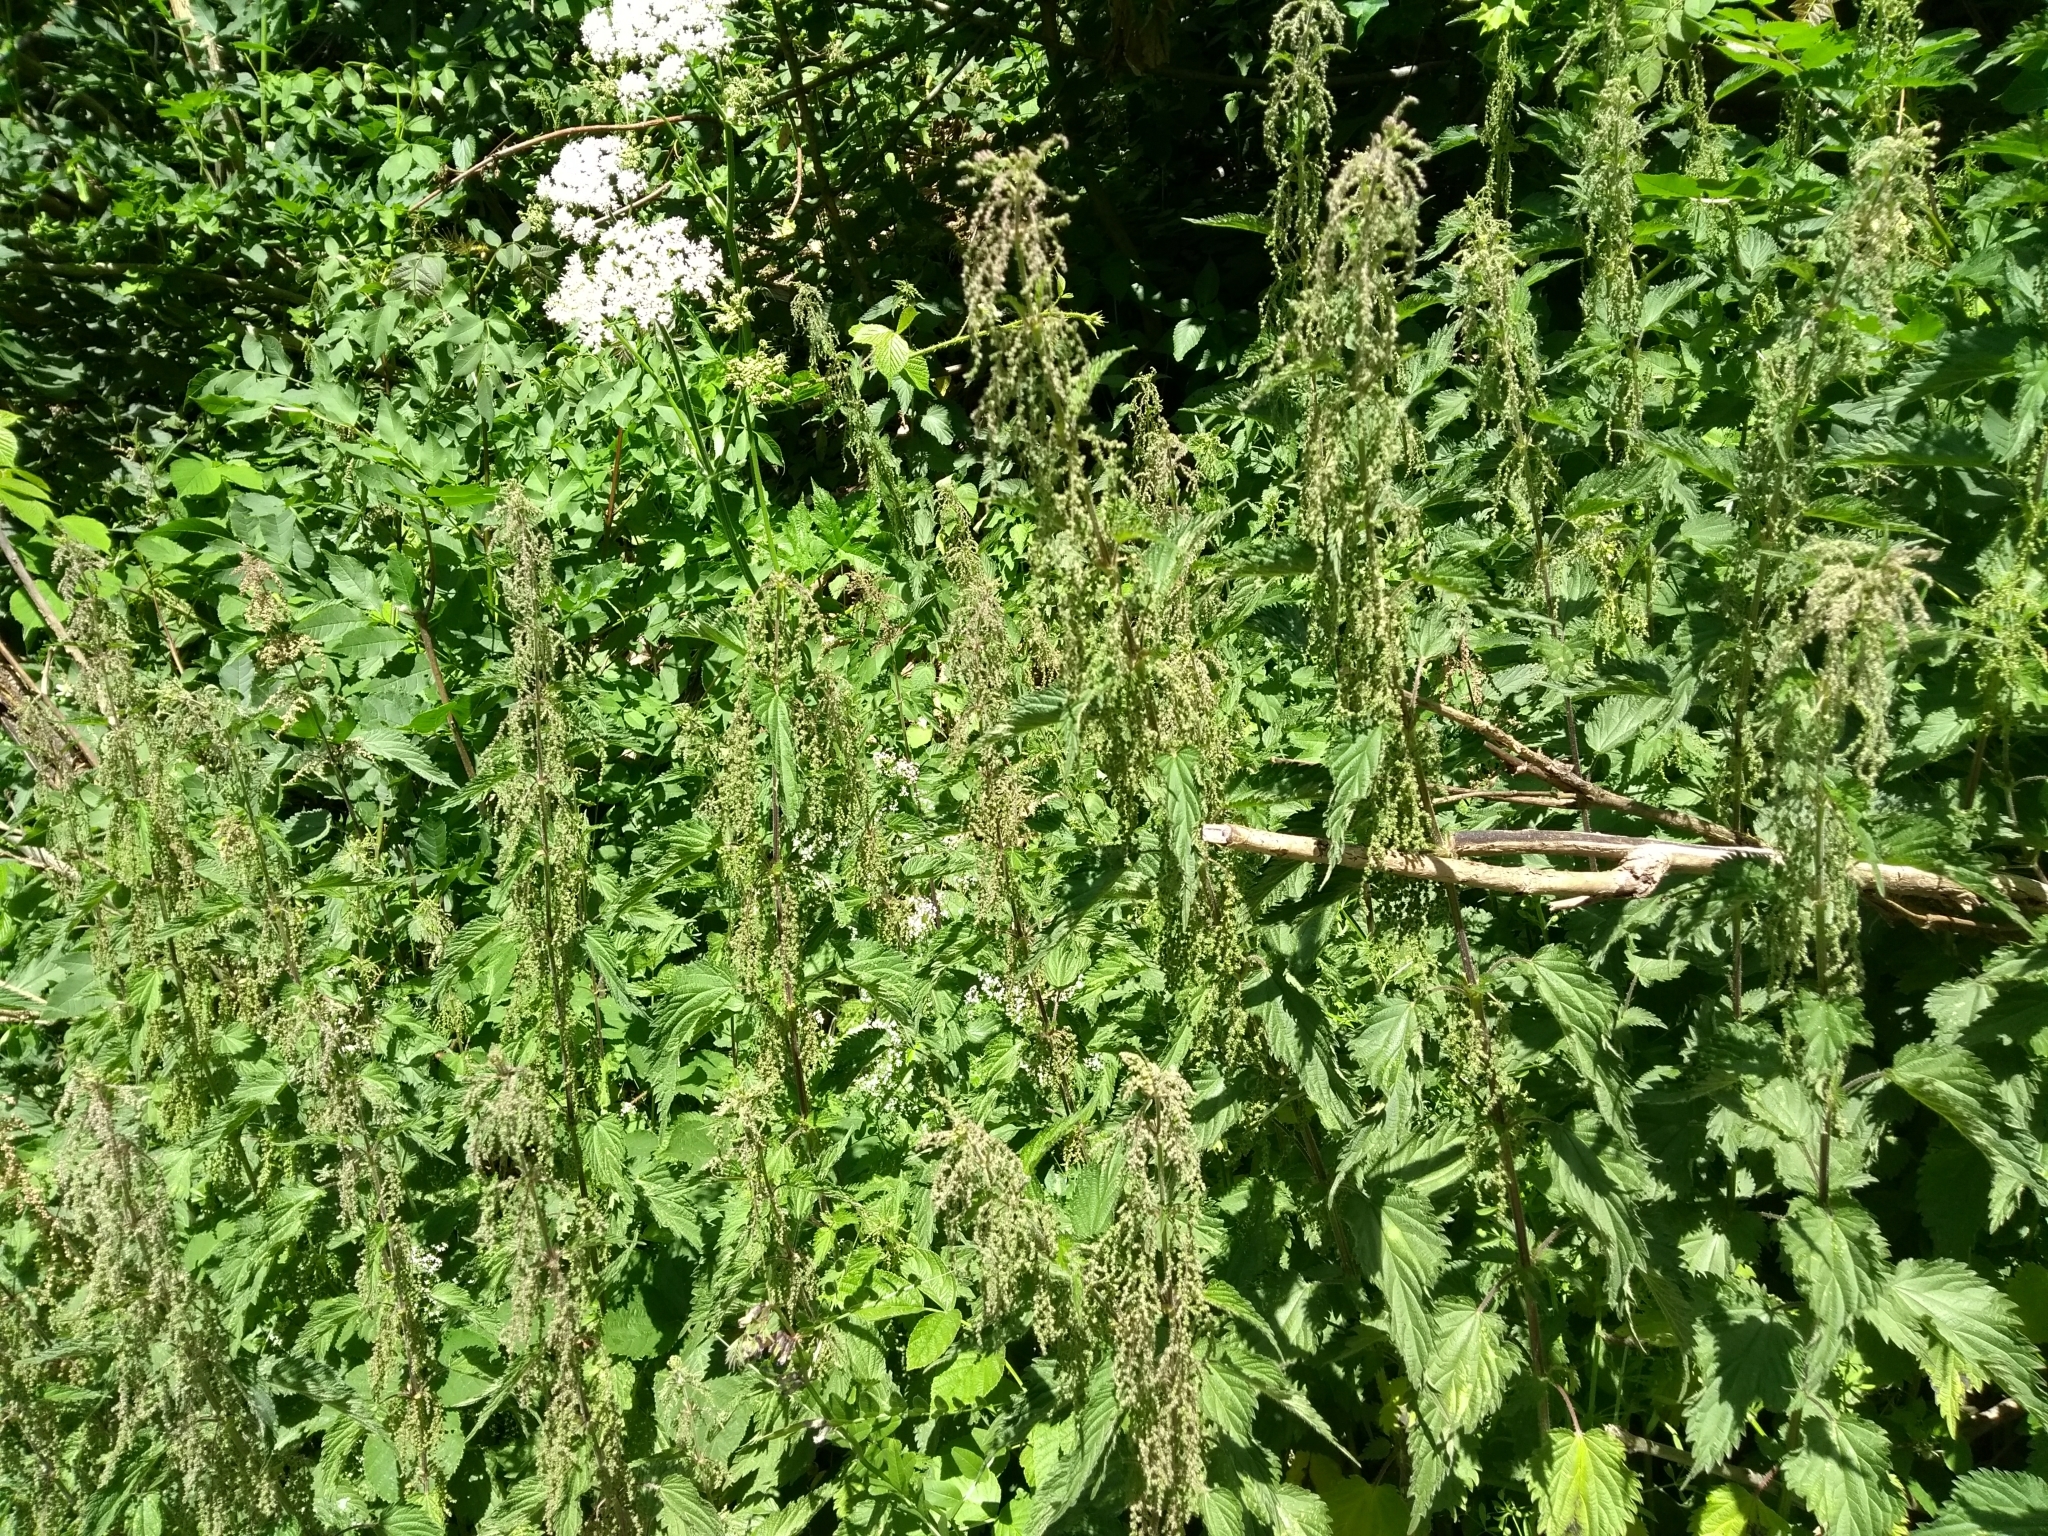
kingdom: Plantae
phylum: Tracheophyta
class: Magnoliopsida
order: Rosales
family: Urticaceae
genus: Urtica
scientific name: Urtica dioica
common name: Common nettle
